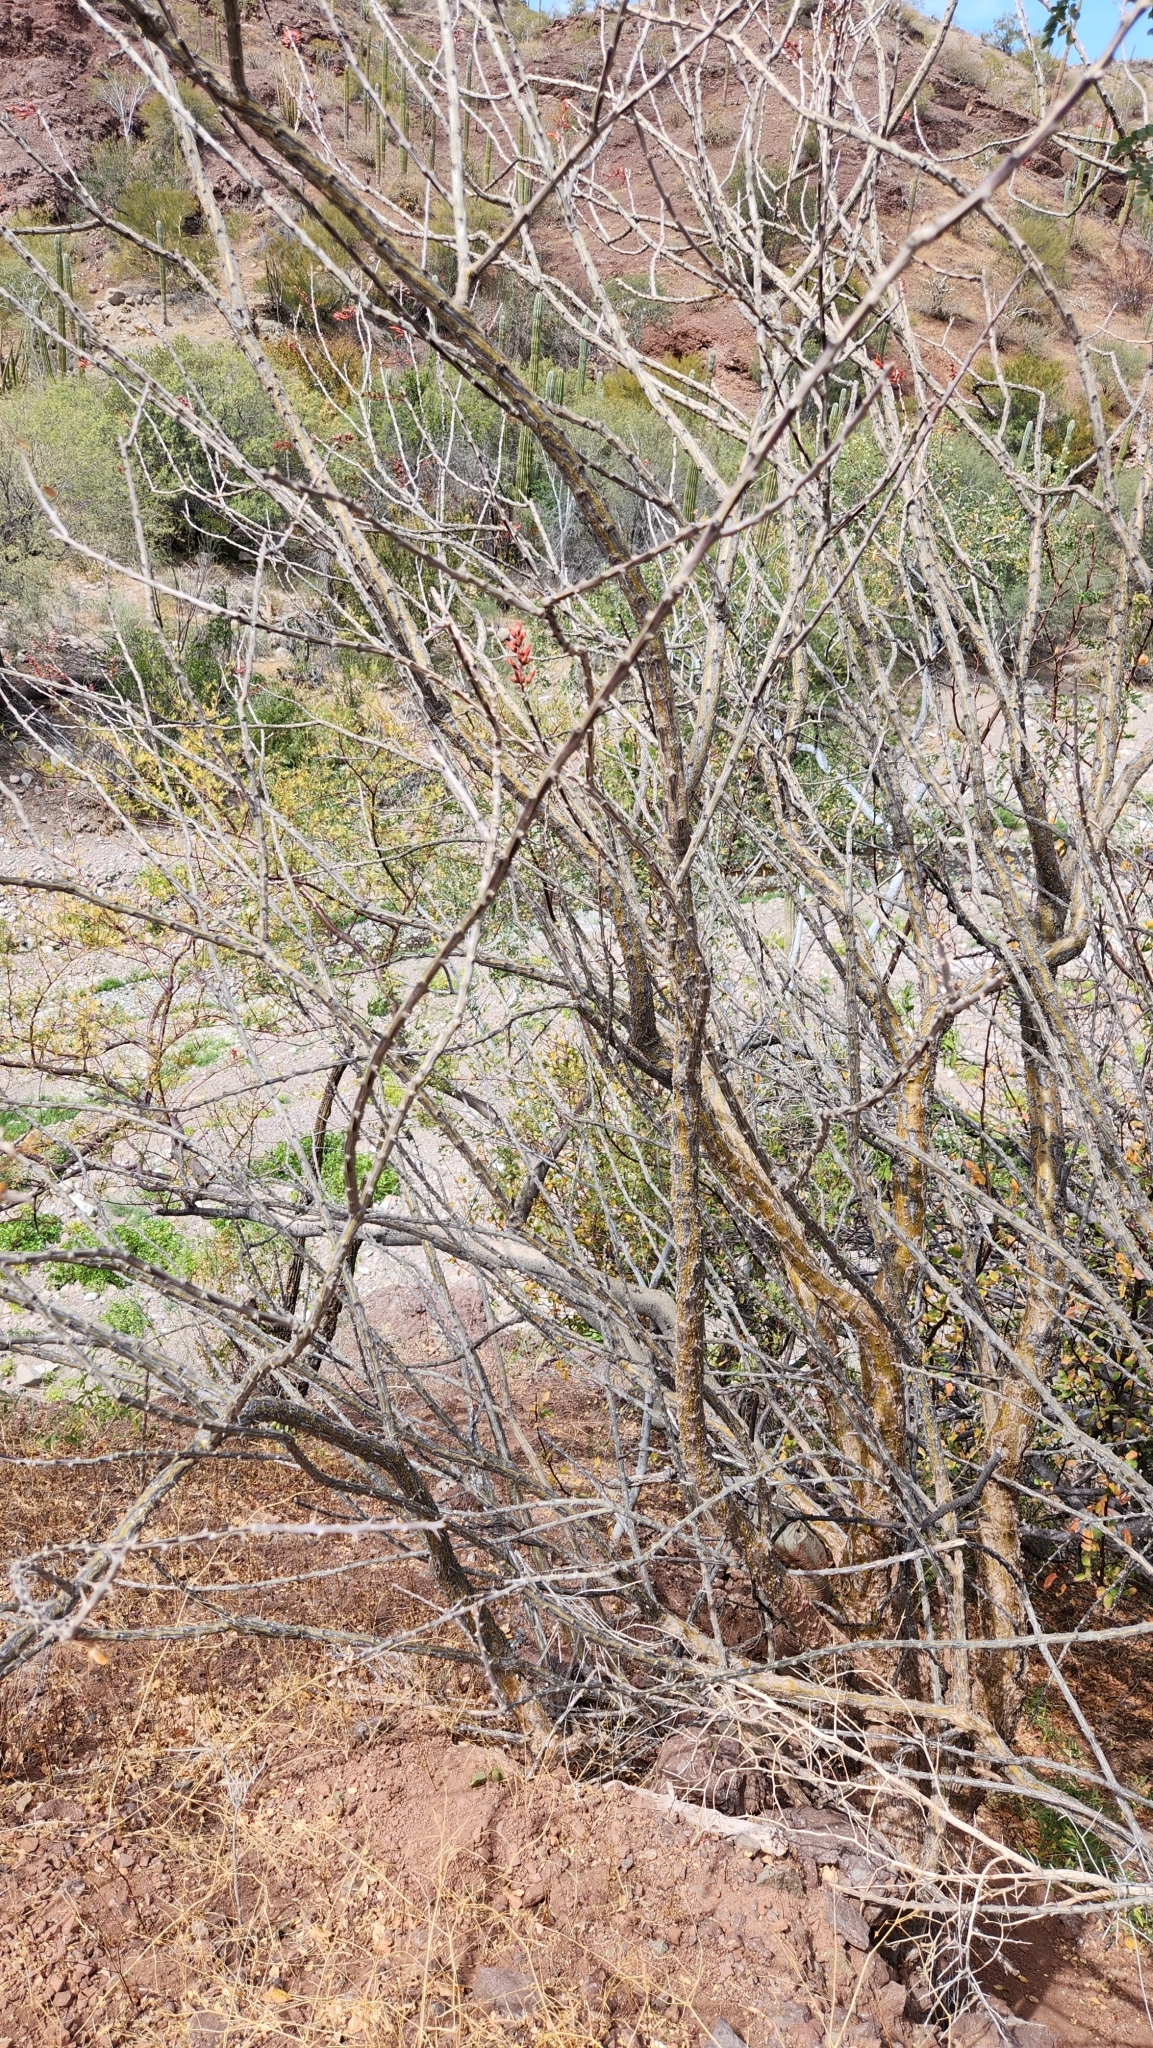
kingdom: Plantae
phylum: Tracheophyta
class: Magnoliopsida
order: Ericales
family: Fouquieriaceae
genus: Fouquieria
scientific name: Fouquieria diguetii
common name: Adam's tree
